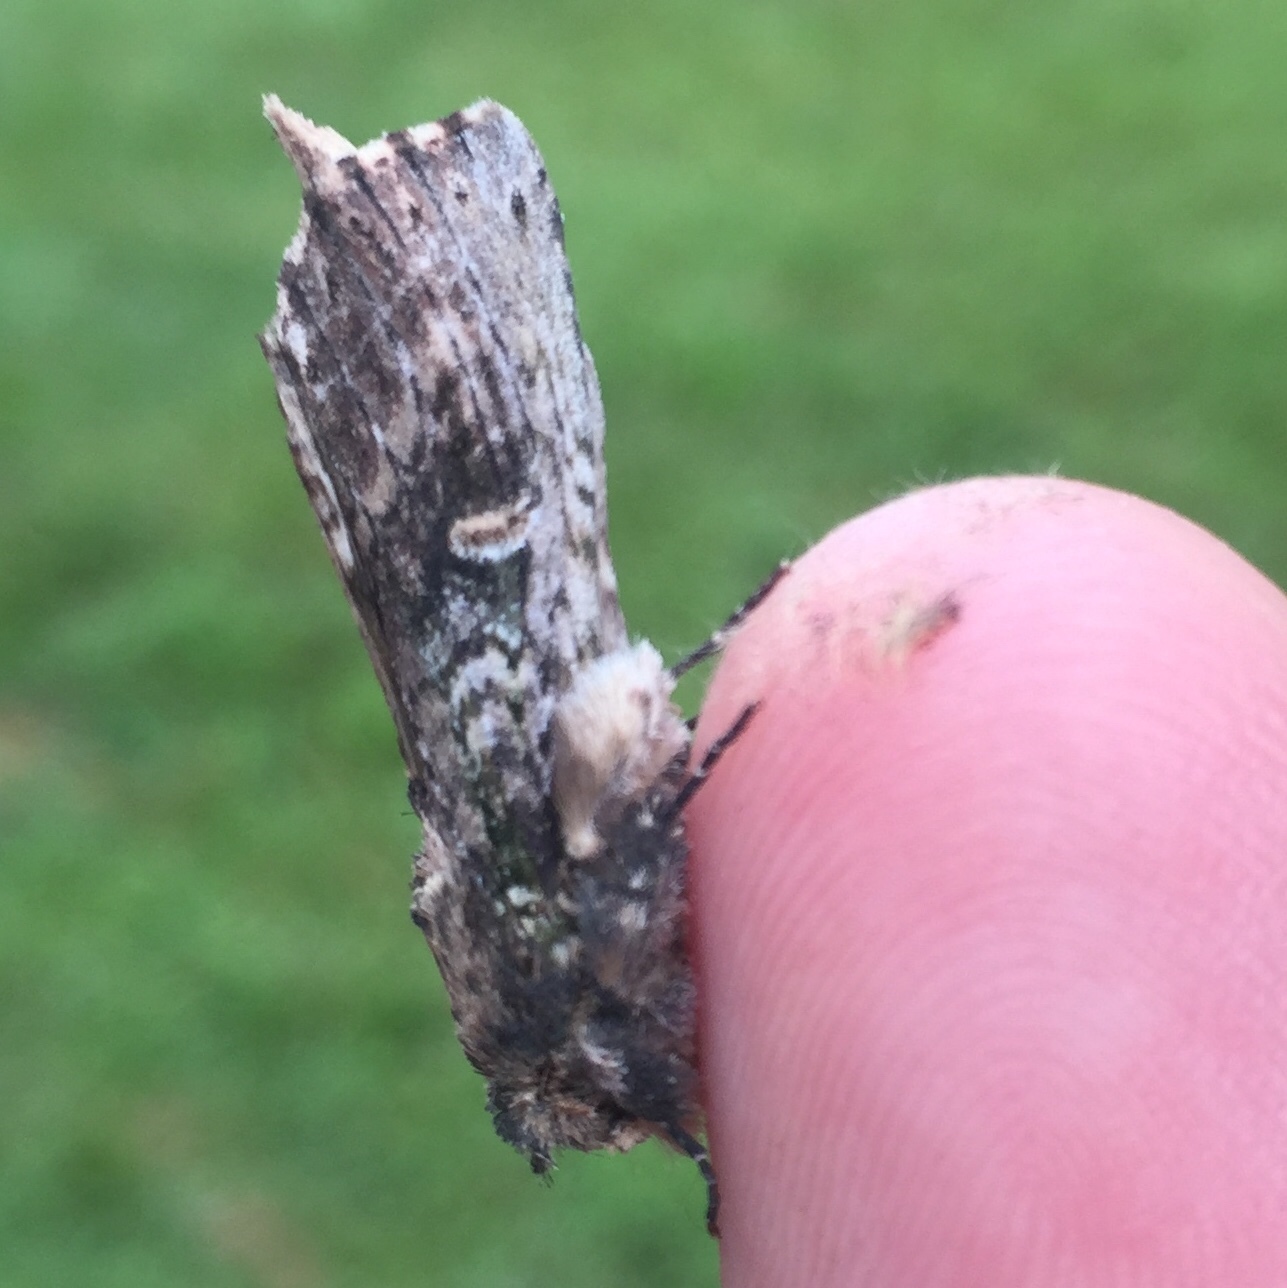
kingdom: Animalia
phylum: Arthropoda
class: Insecta
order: Lepidoptera
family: Notodontidae
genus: Schizura
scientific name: Schizura ipomaeae
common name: Morning-glory prominent
